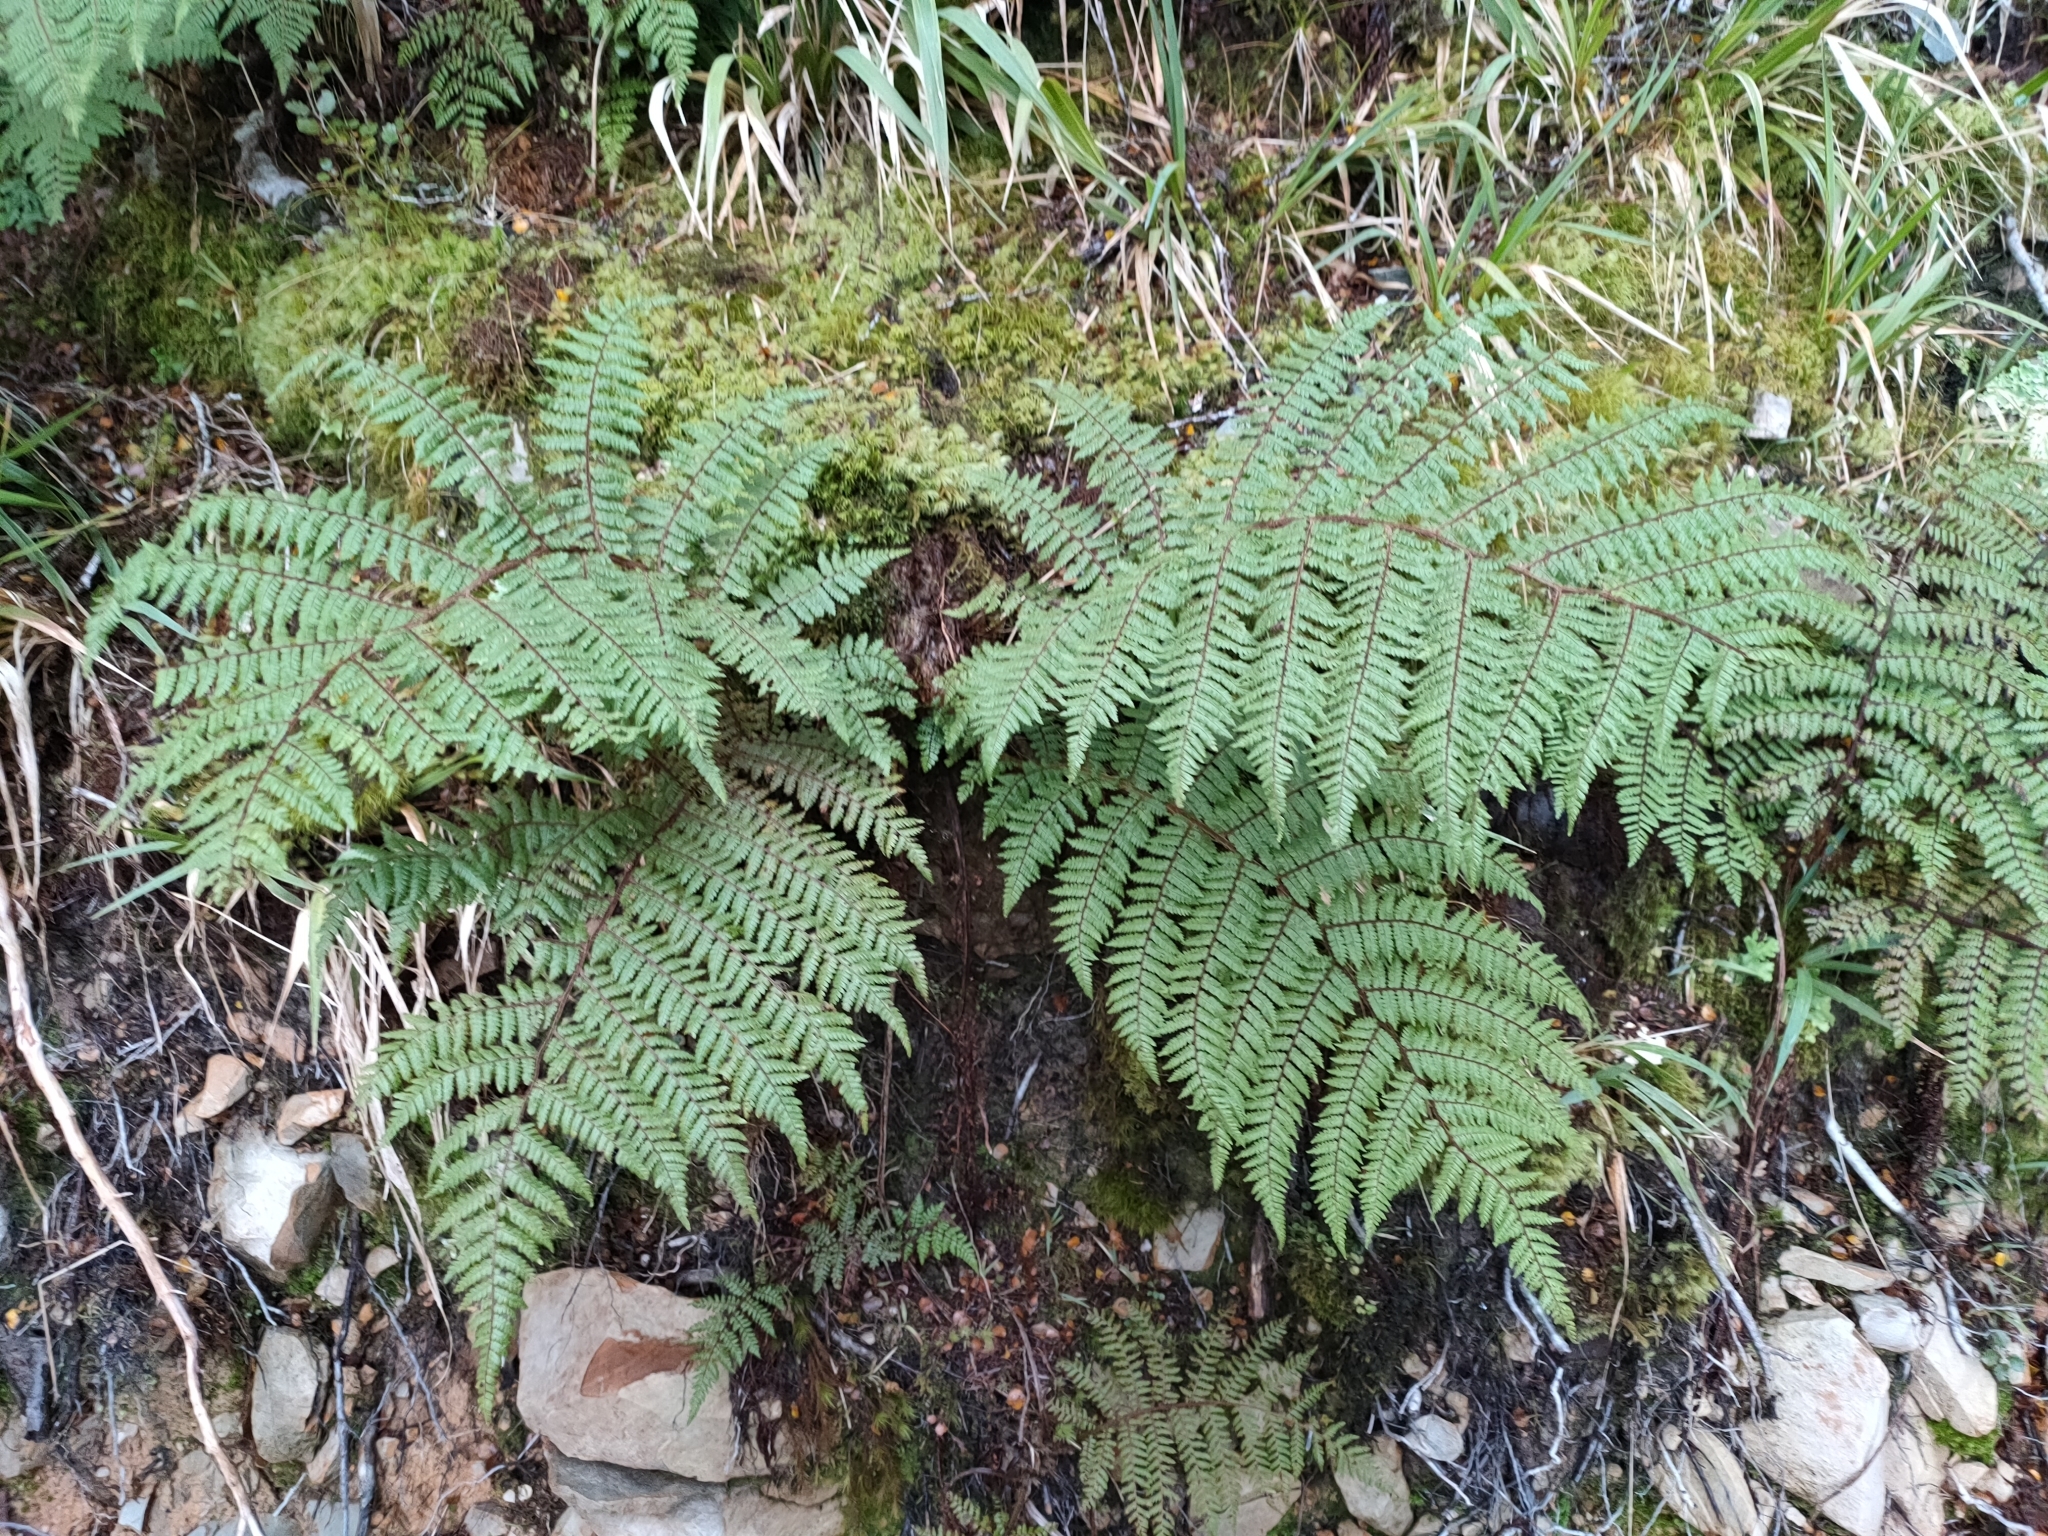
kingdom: Plantae
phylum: Tracheophyta
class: Polypodiopsida
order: Cyatheales
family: Cyatheaceae
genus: Alsophila
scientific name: Alsophila colensoi
